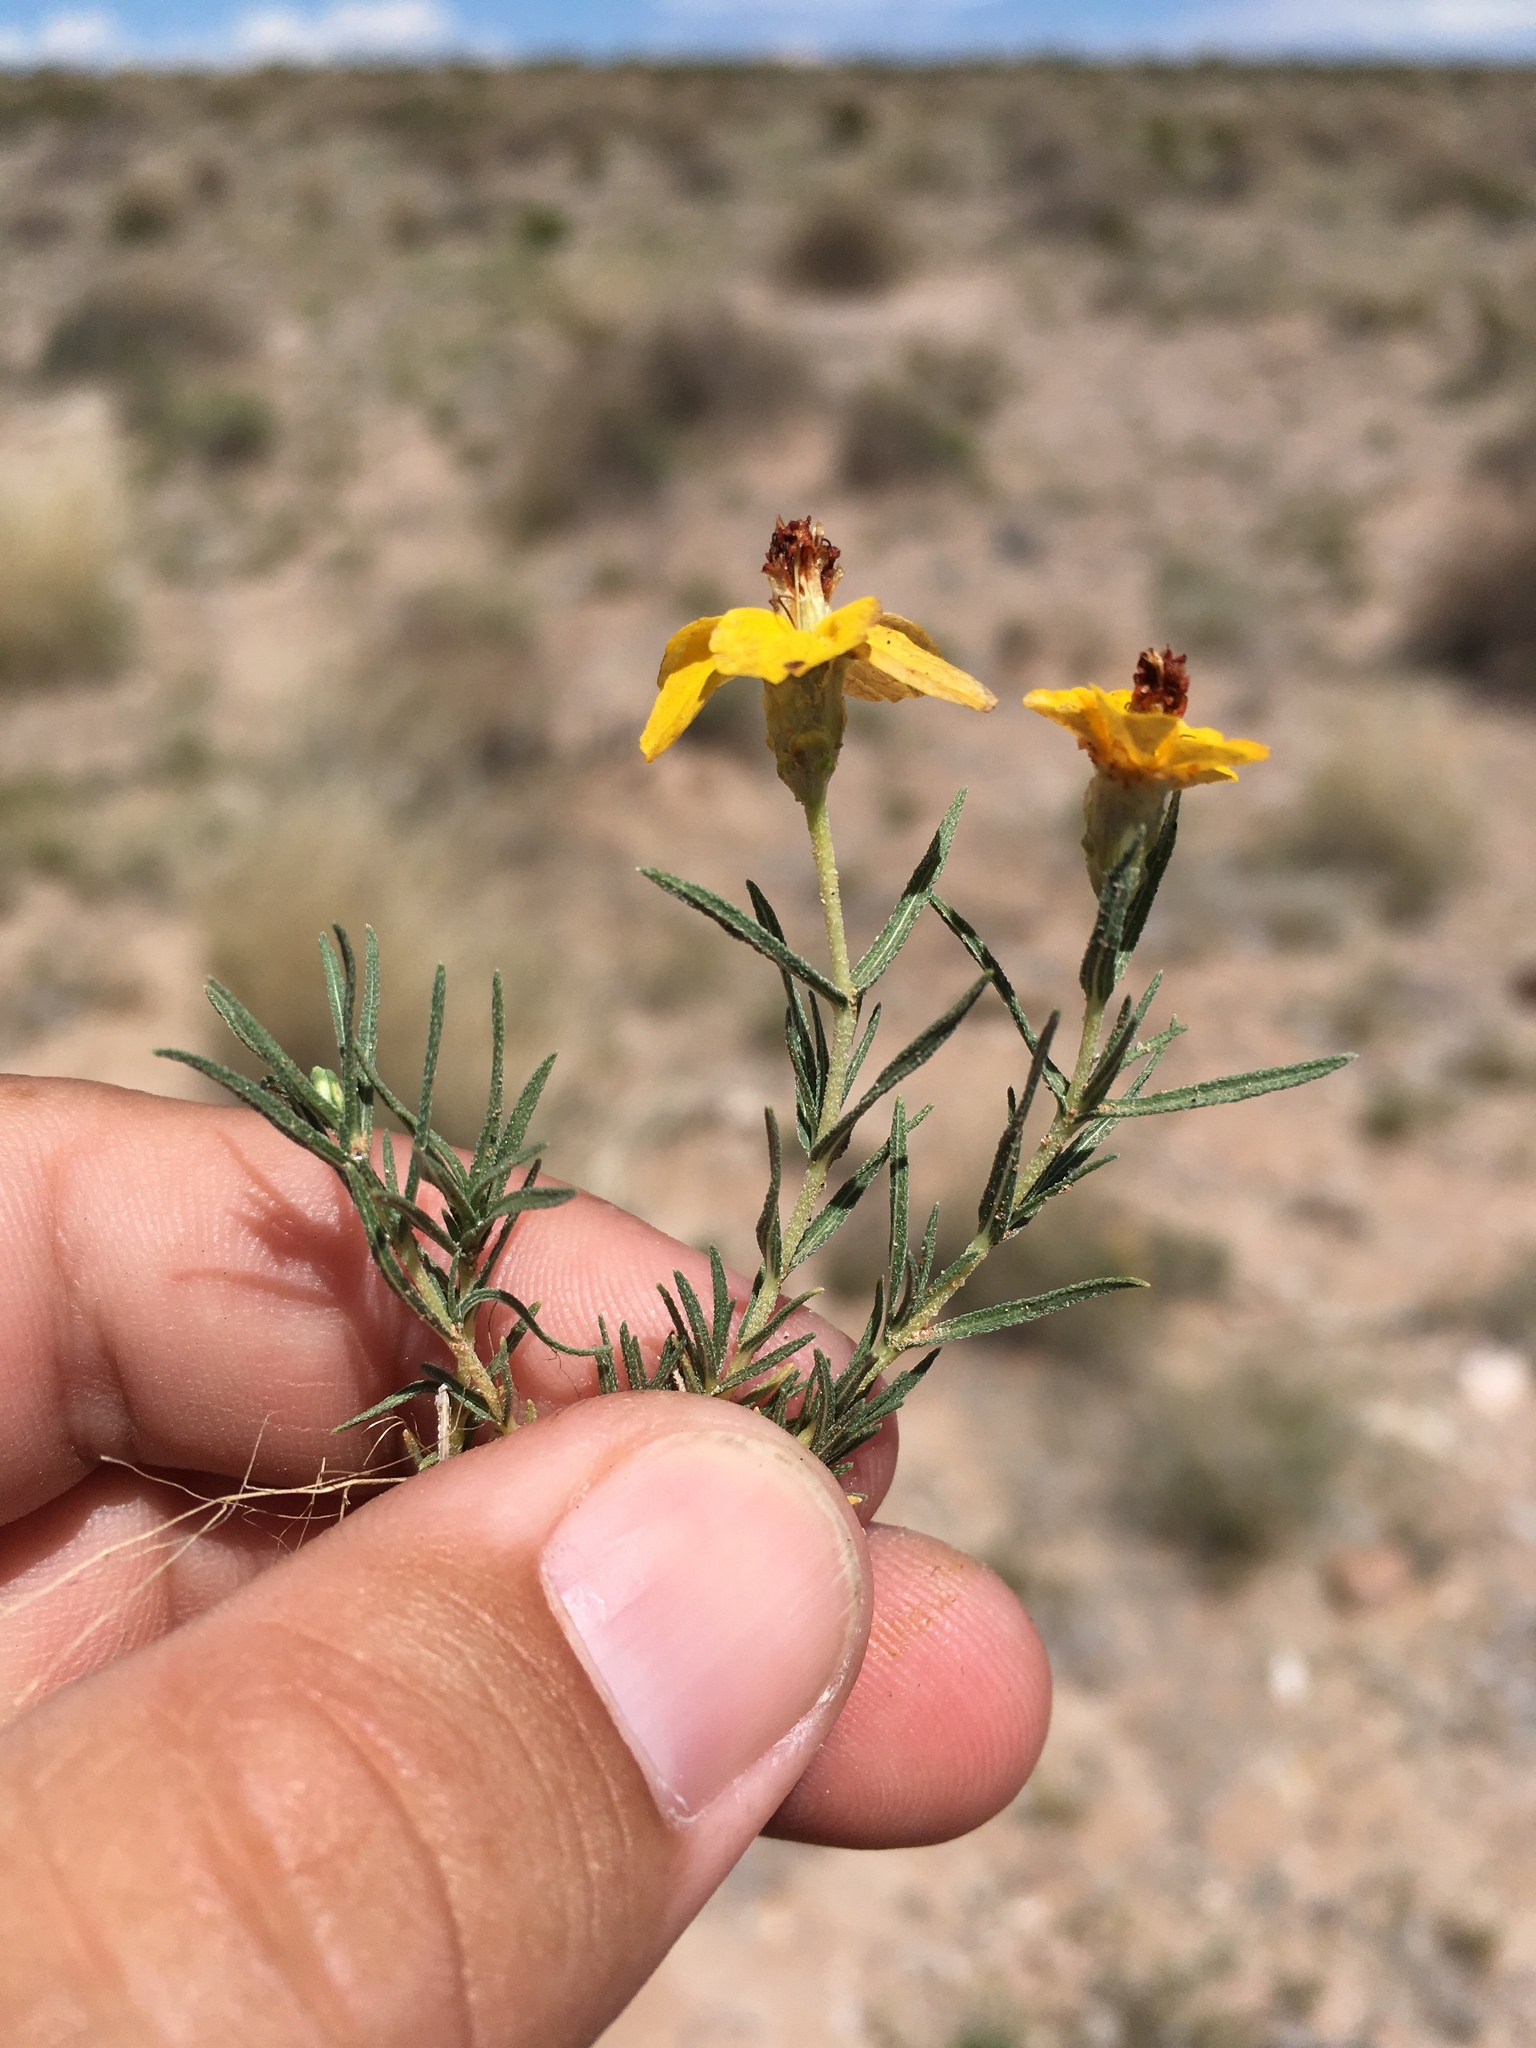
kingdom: Plantae
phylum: Tracheophyta
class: Magnoliopsida
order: Asterales
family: Asteraceae
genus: Zinnia
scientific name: Zinnia grandiflora
